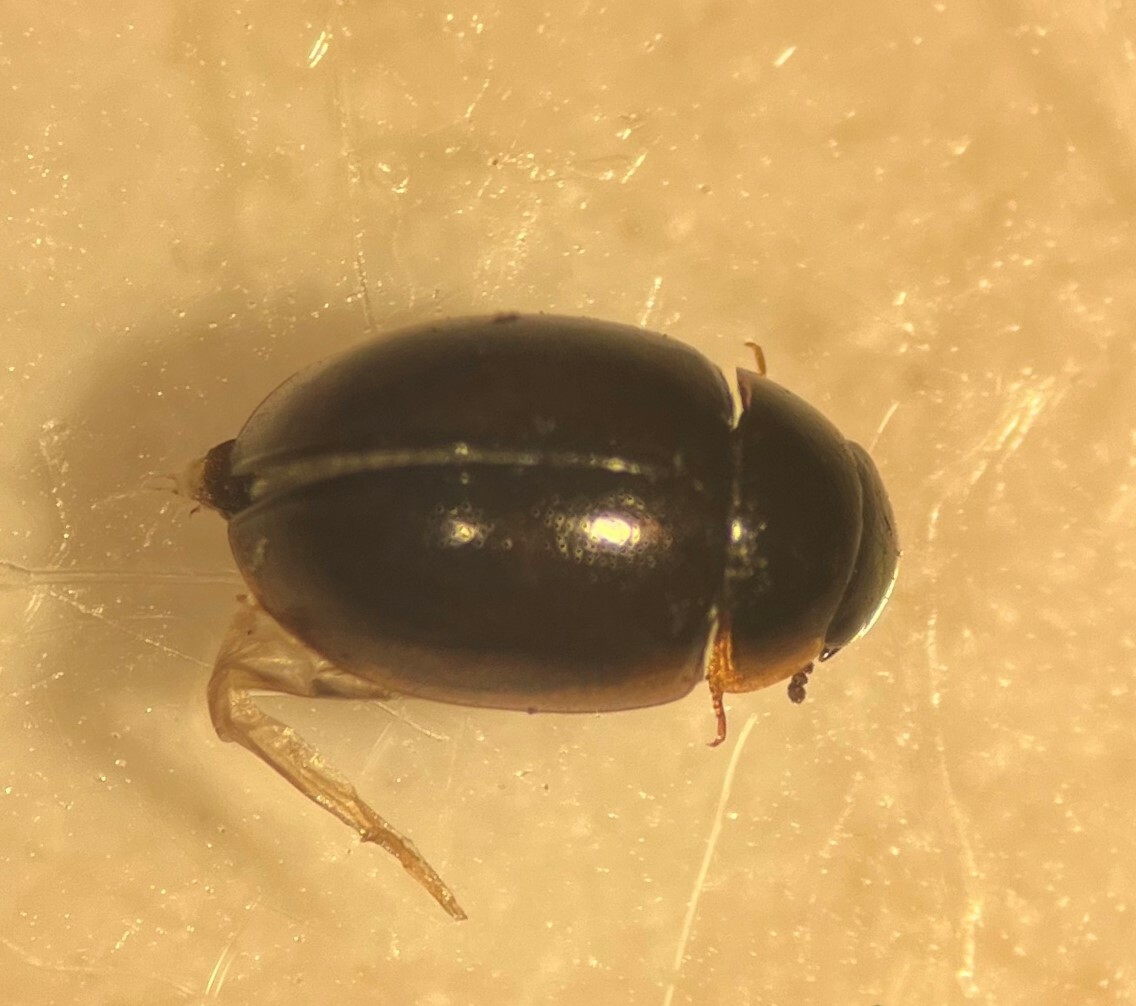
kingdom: Animalia
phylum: Arthropoda
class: Insecta
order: Coleoptera
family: Hydrophilidae
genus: Anacaena
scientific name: Anacaena limbata
